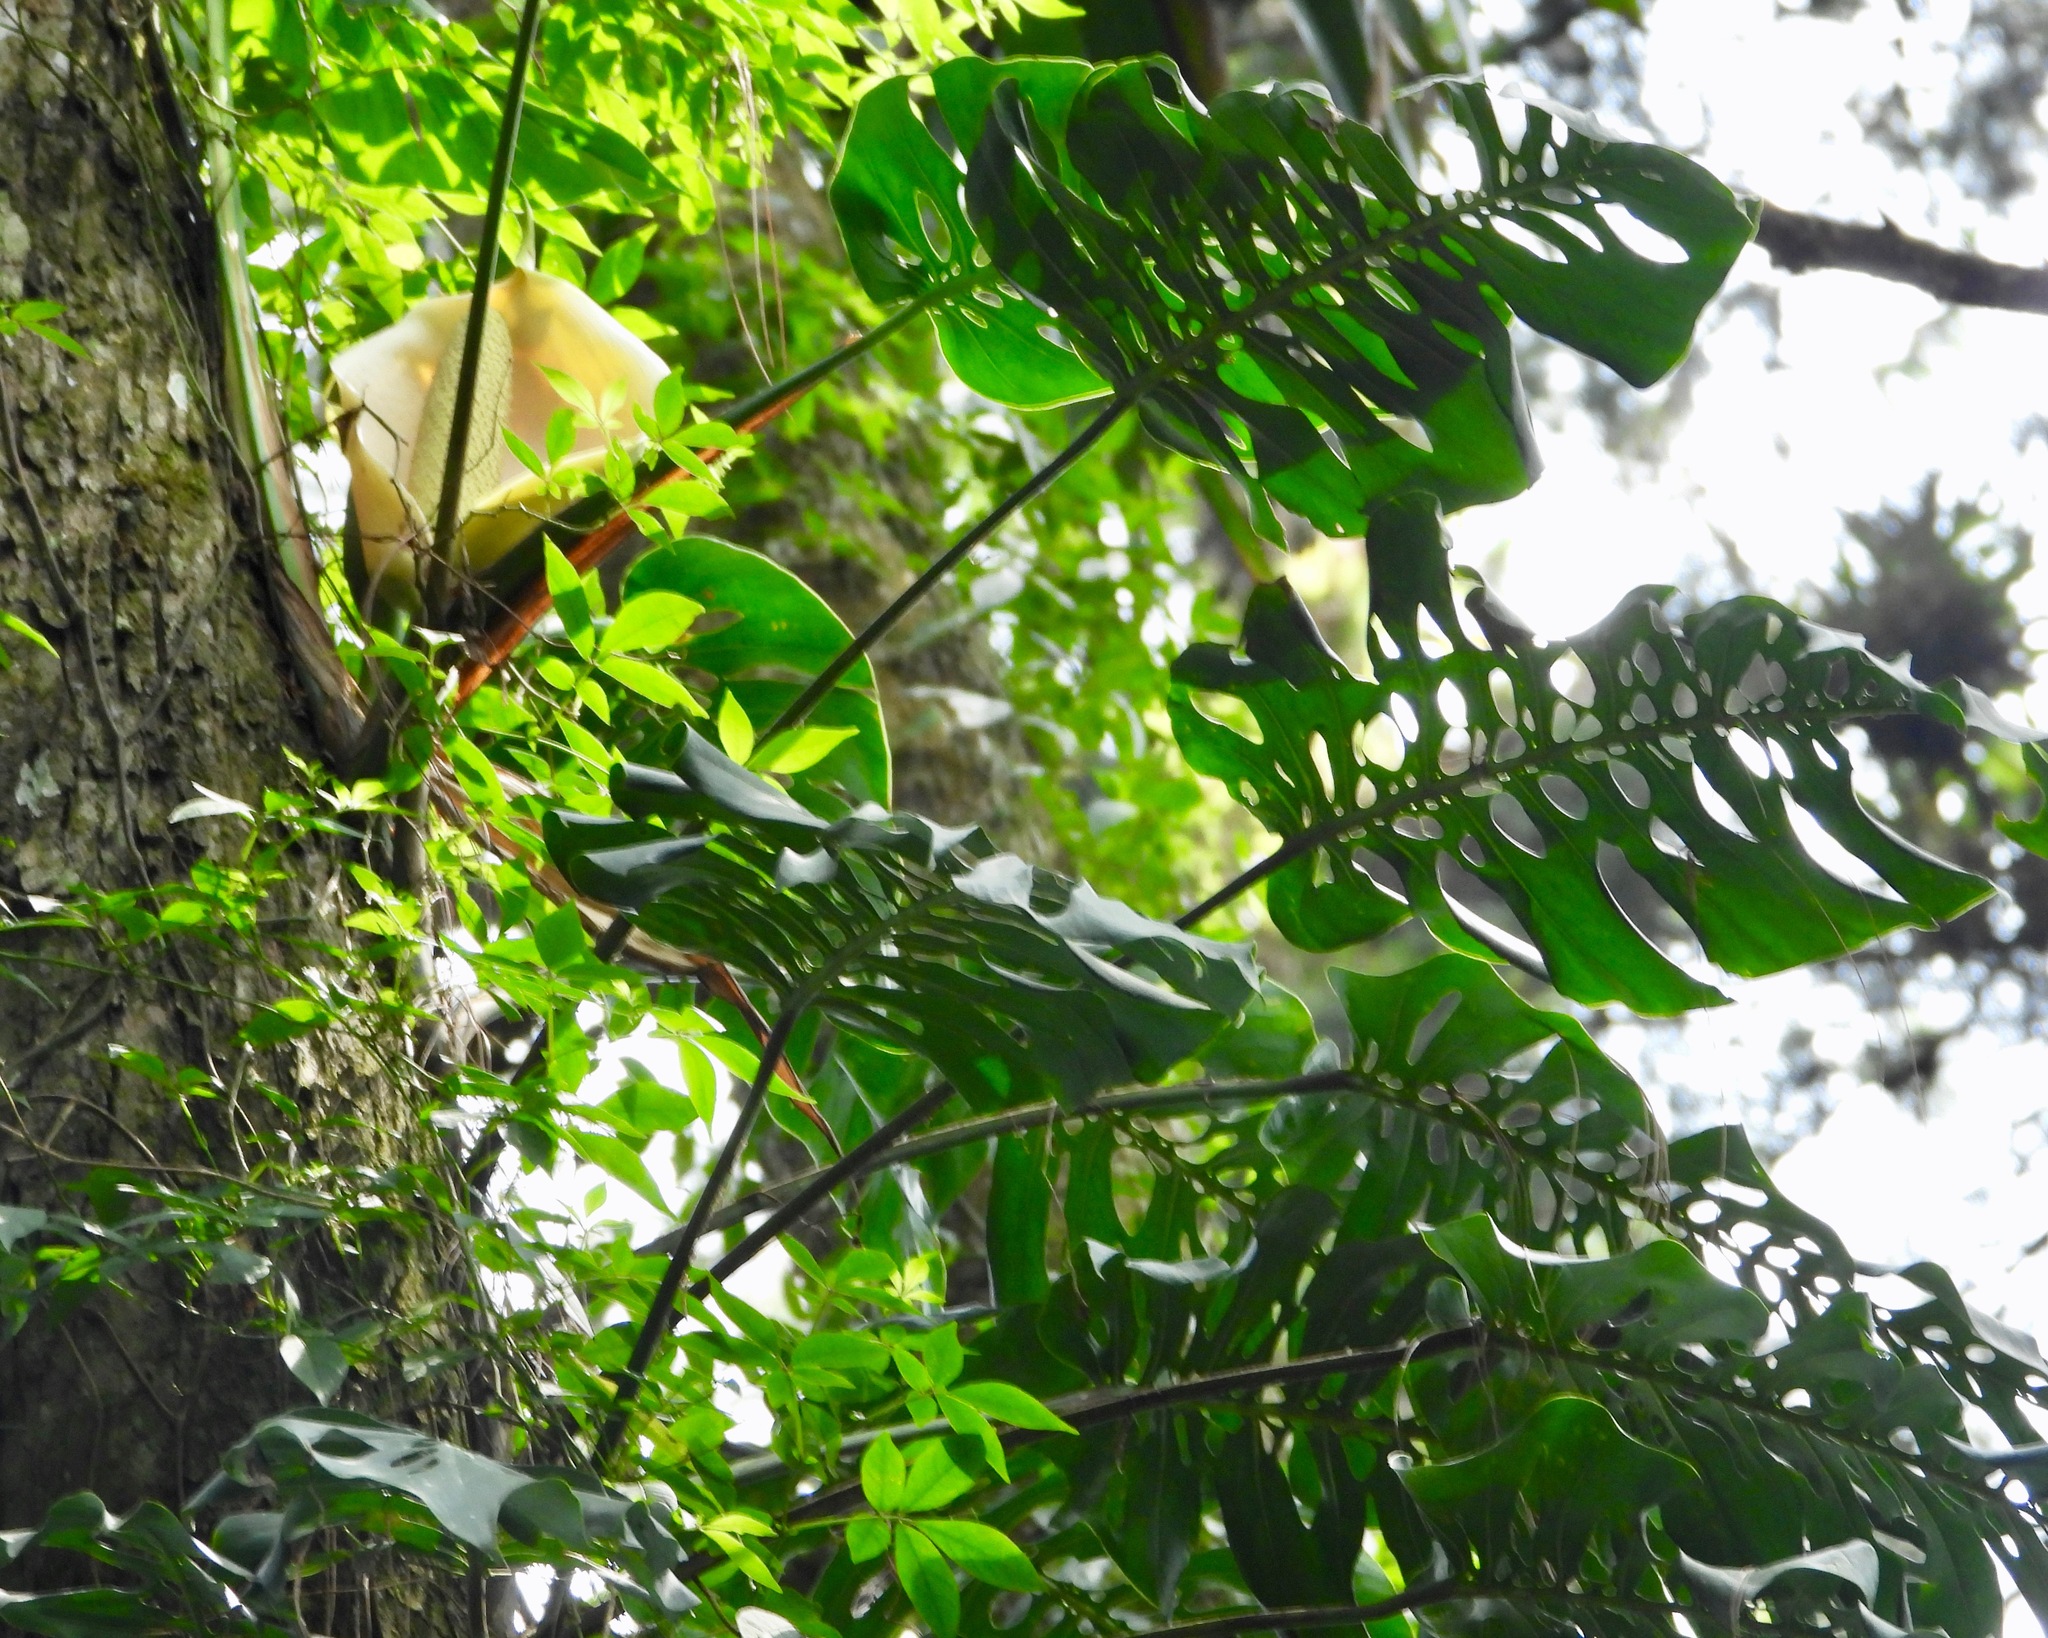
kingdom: Plantae
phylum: Tracheophyta
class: Liliopsida
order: Alismatales
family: Araceae
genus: Monstera
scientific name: Monstera siltepecana
